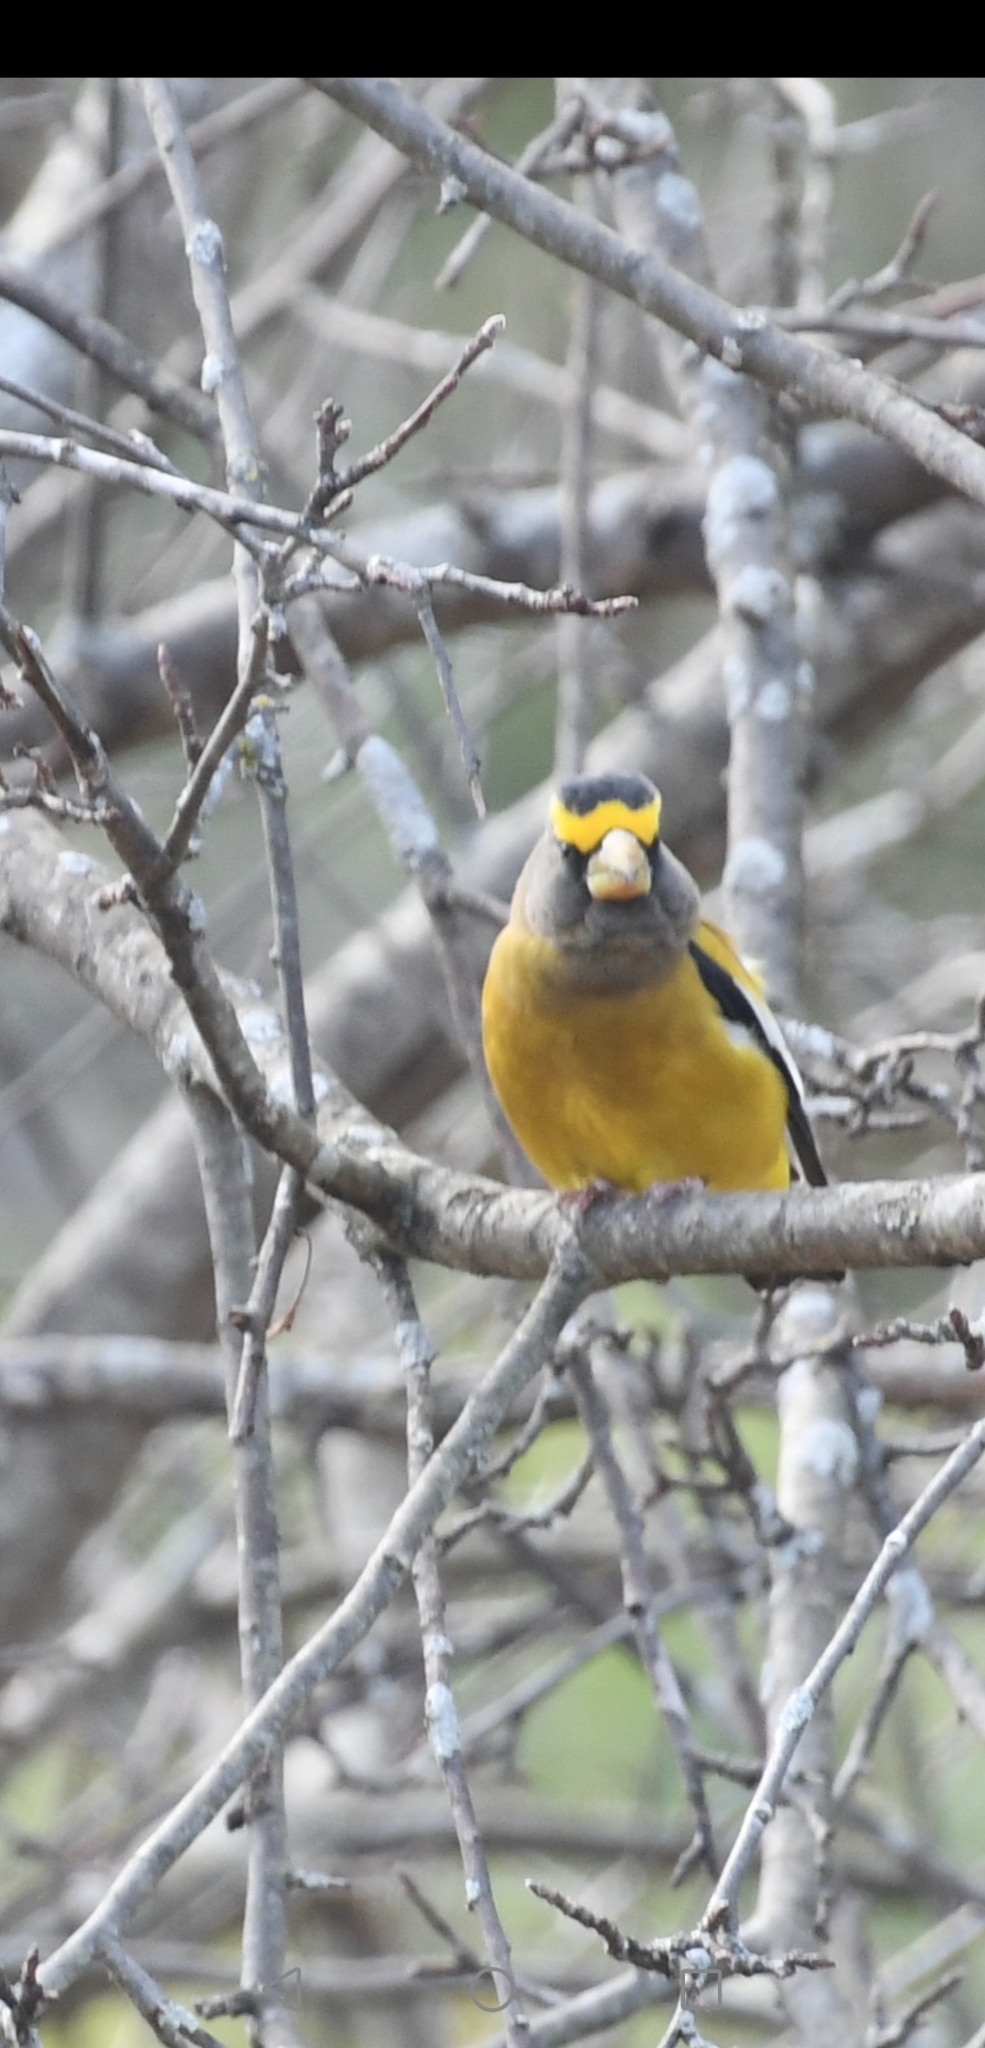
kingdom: Animalia
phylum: Chordata
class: Aves
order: Passeriformes
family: Fringillidae
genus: Hesperiphona
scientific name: Hesperiphona vespertina
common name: Evening grosbeak
